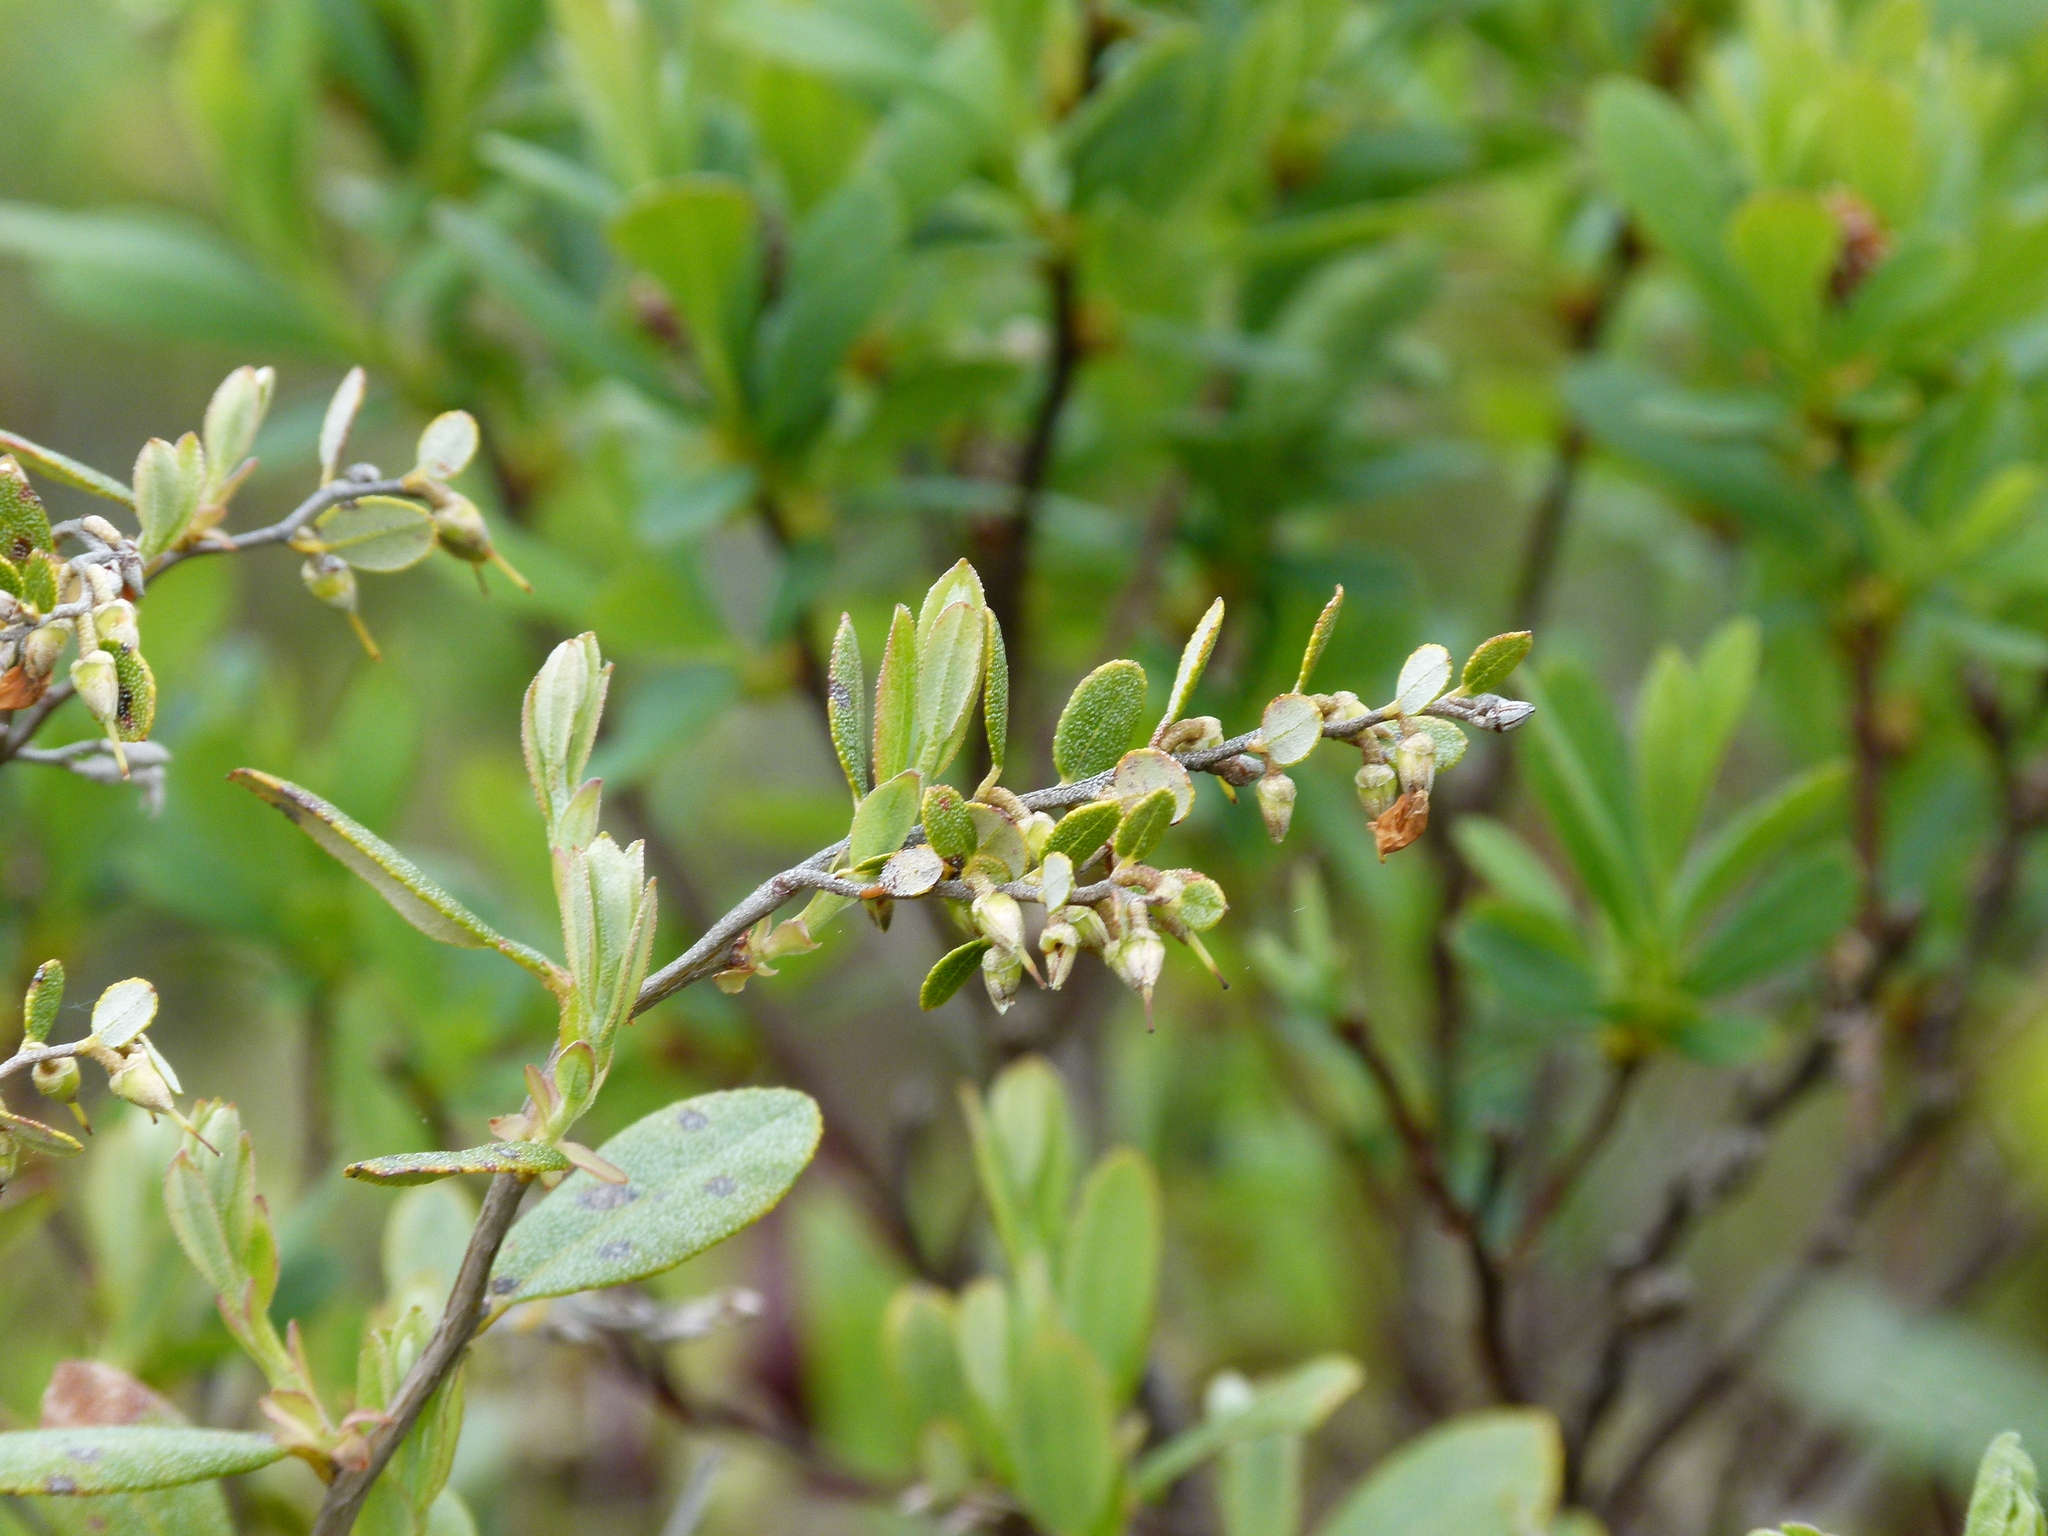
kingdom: Plantae
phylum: Tracheophyta
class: Magnoliopsida
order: Ericales
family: Ericaceae
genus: Chamaedaphne
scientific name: Chamaedaphne calyculata
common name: Leatherleaf
